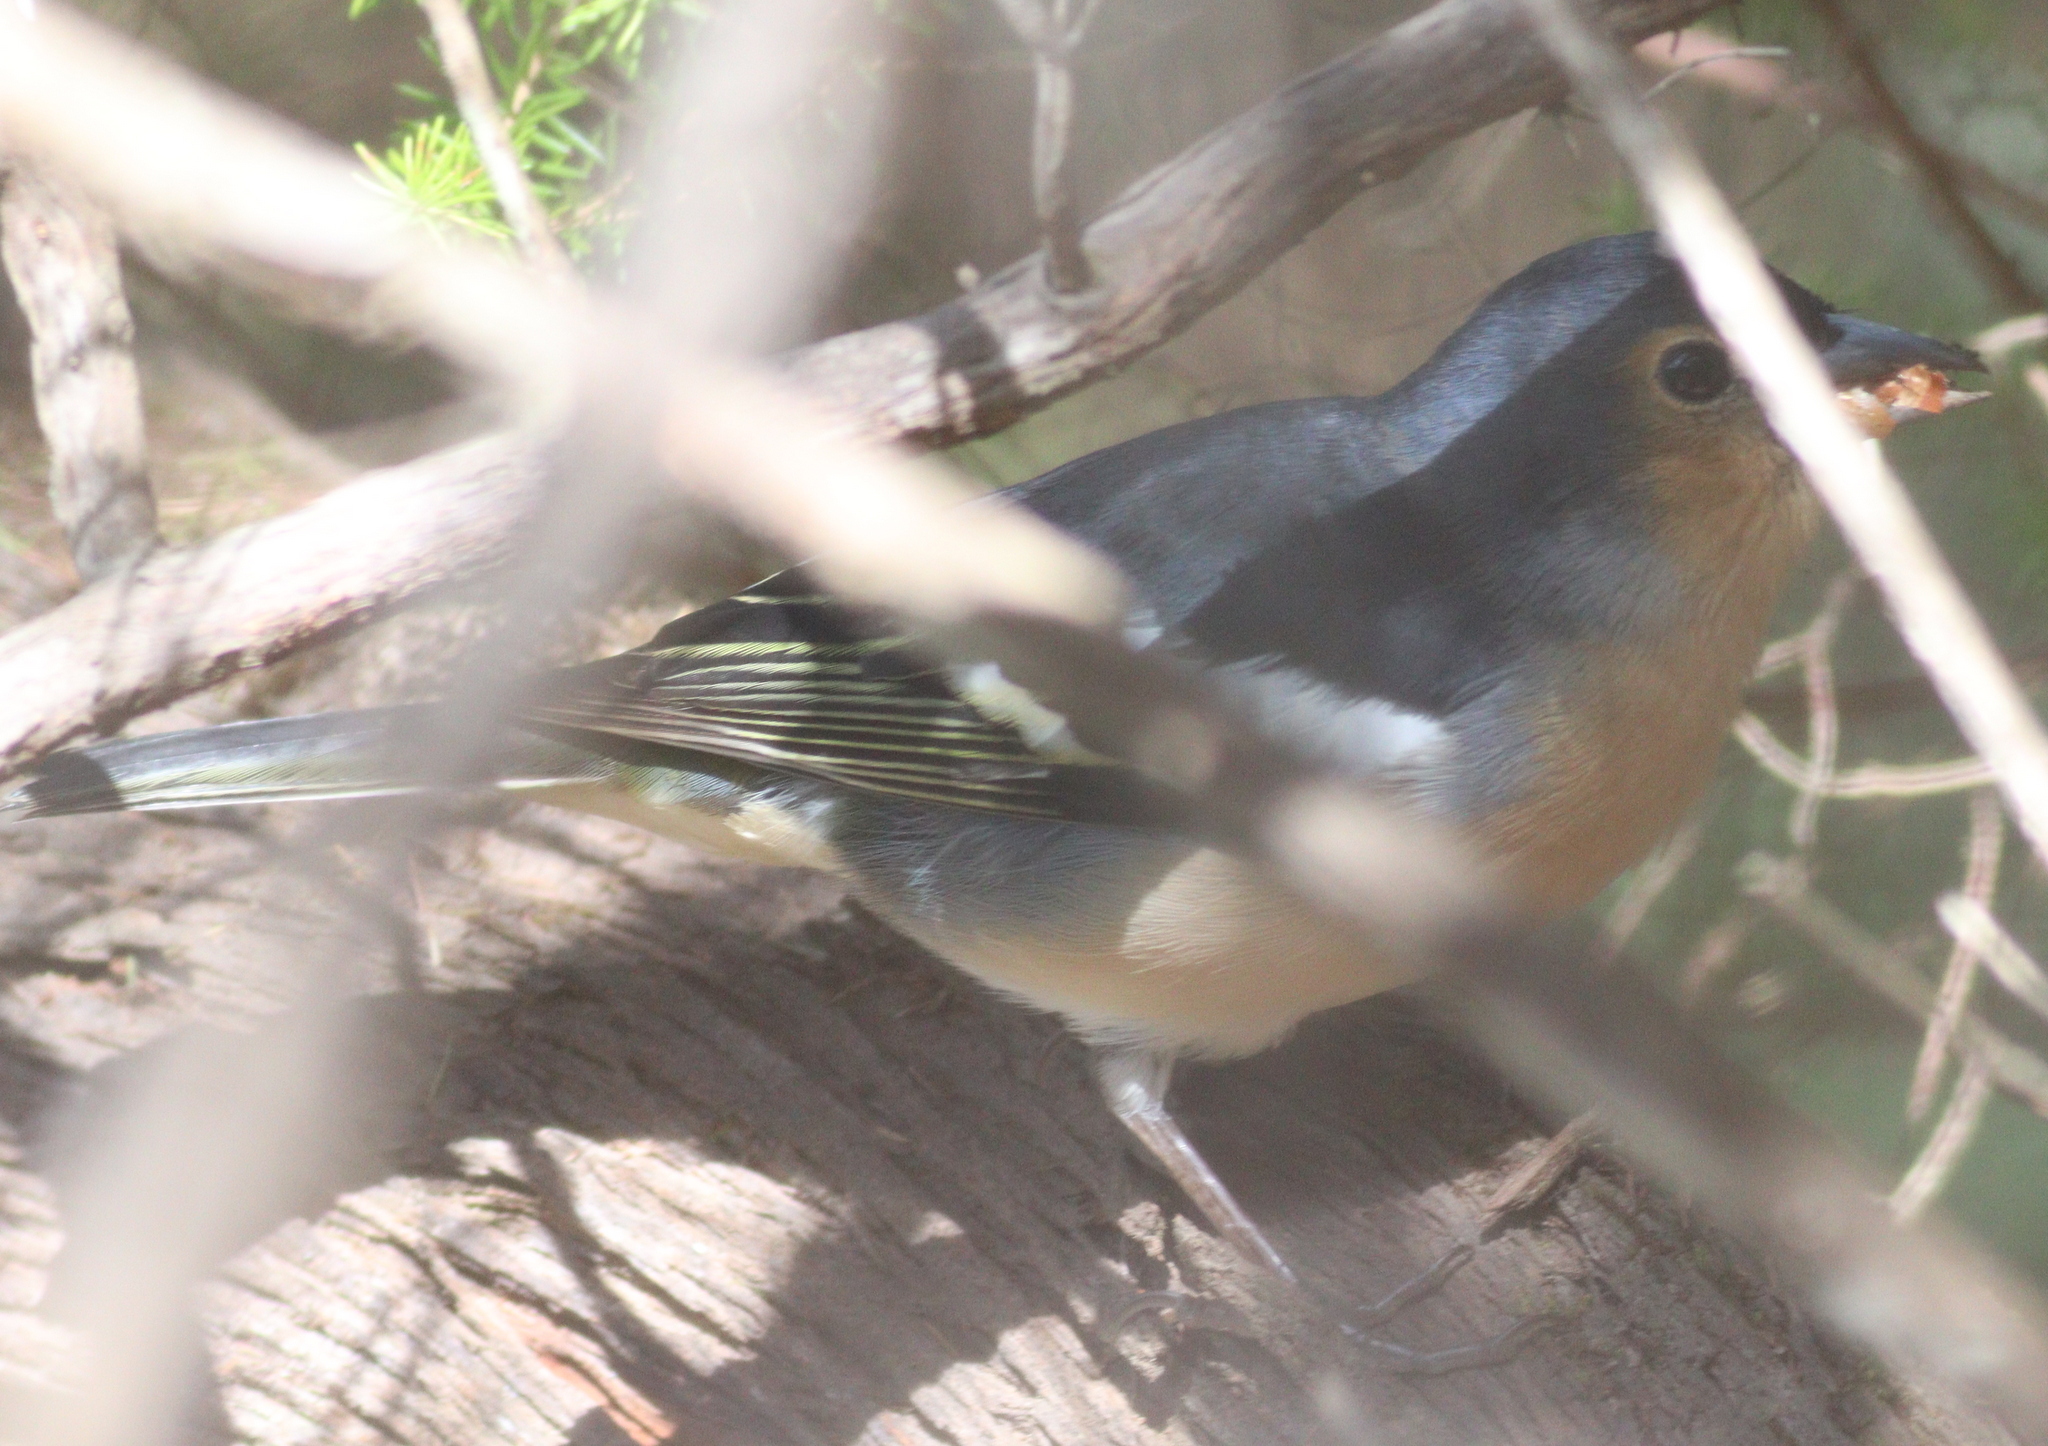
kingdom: Animalia
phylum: Chordata
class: Aves
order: Passeriformes
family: Fringillidae
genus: Fringilla
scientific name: Fringilla canariensis
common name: Canary islands chaffinch
